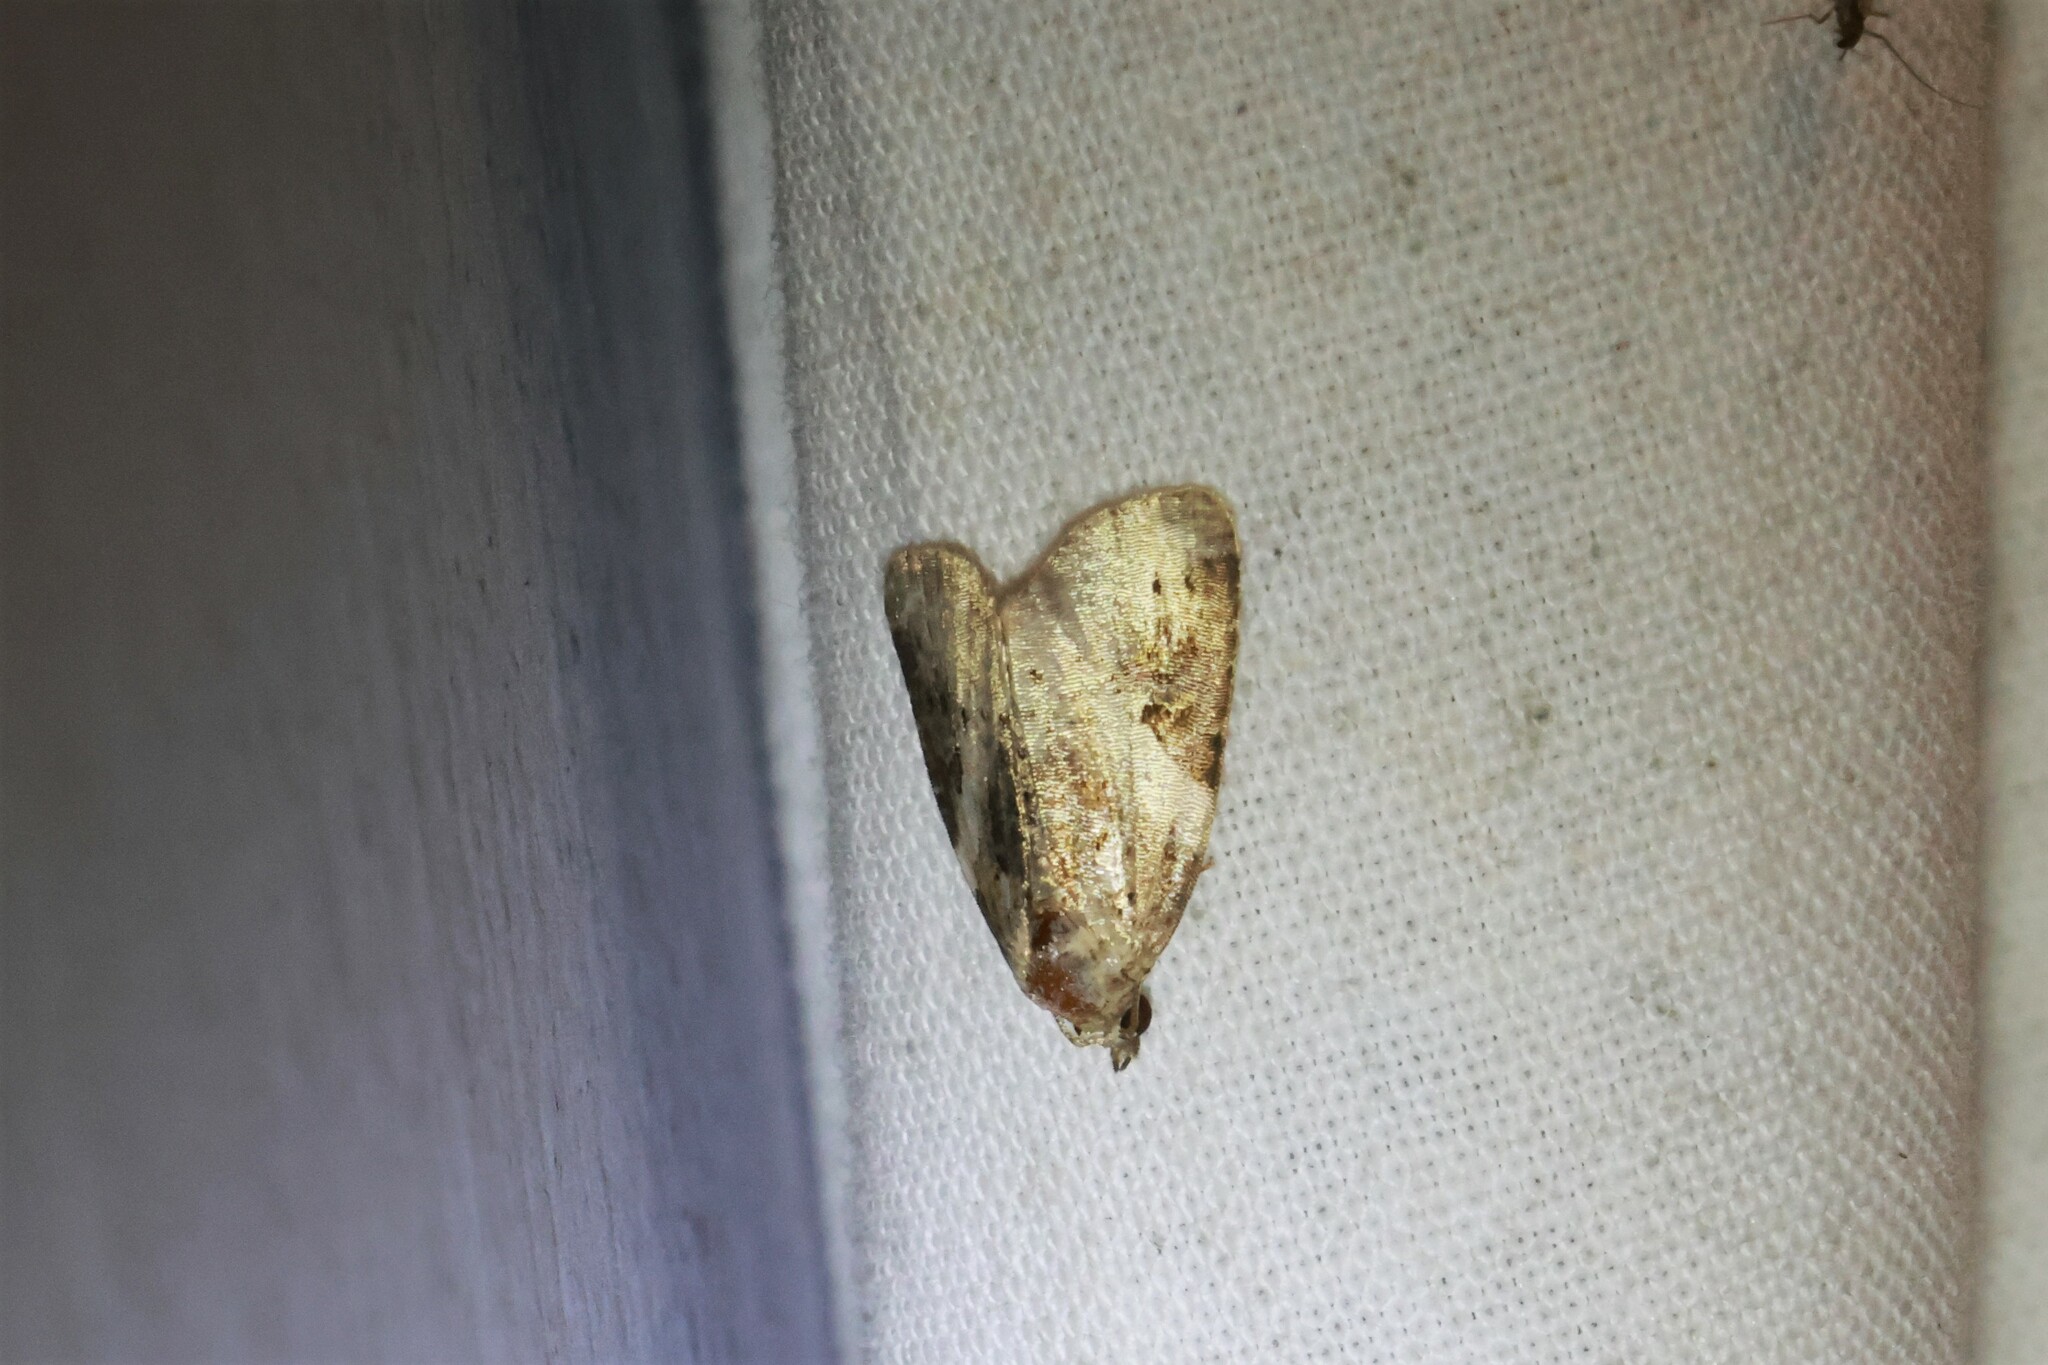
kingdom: Animalia
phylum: Arthropoda
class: Insecta
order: Lepidoptera
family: Noctuidae
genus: Pseudeustrotia
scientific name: Pseudeustrotia carneola
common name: Pink-barred lithacodia moth
